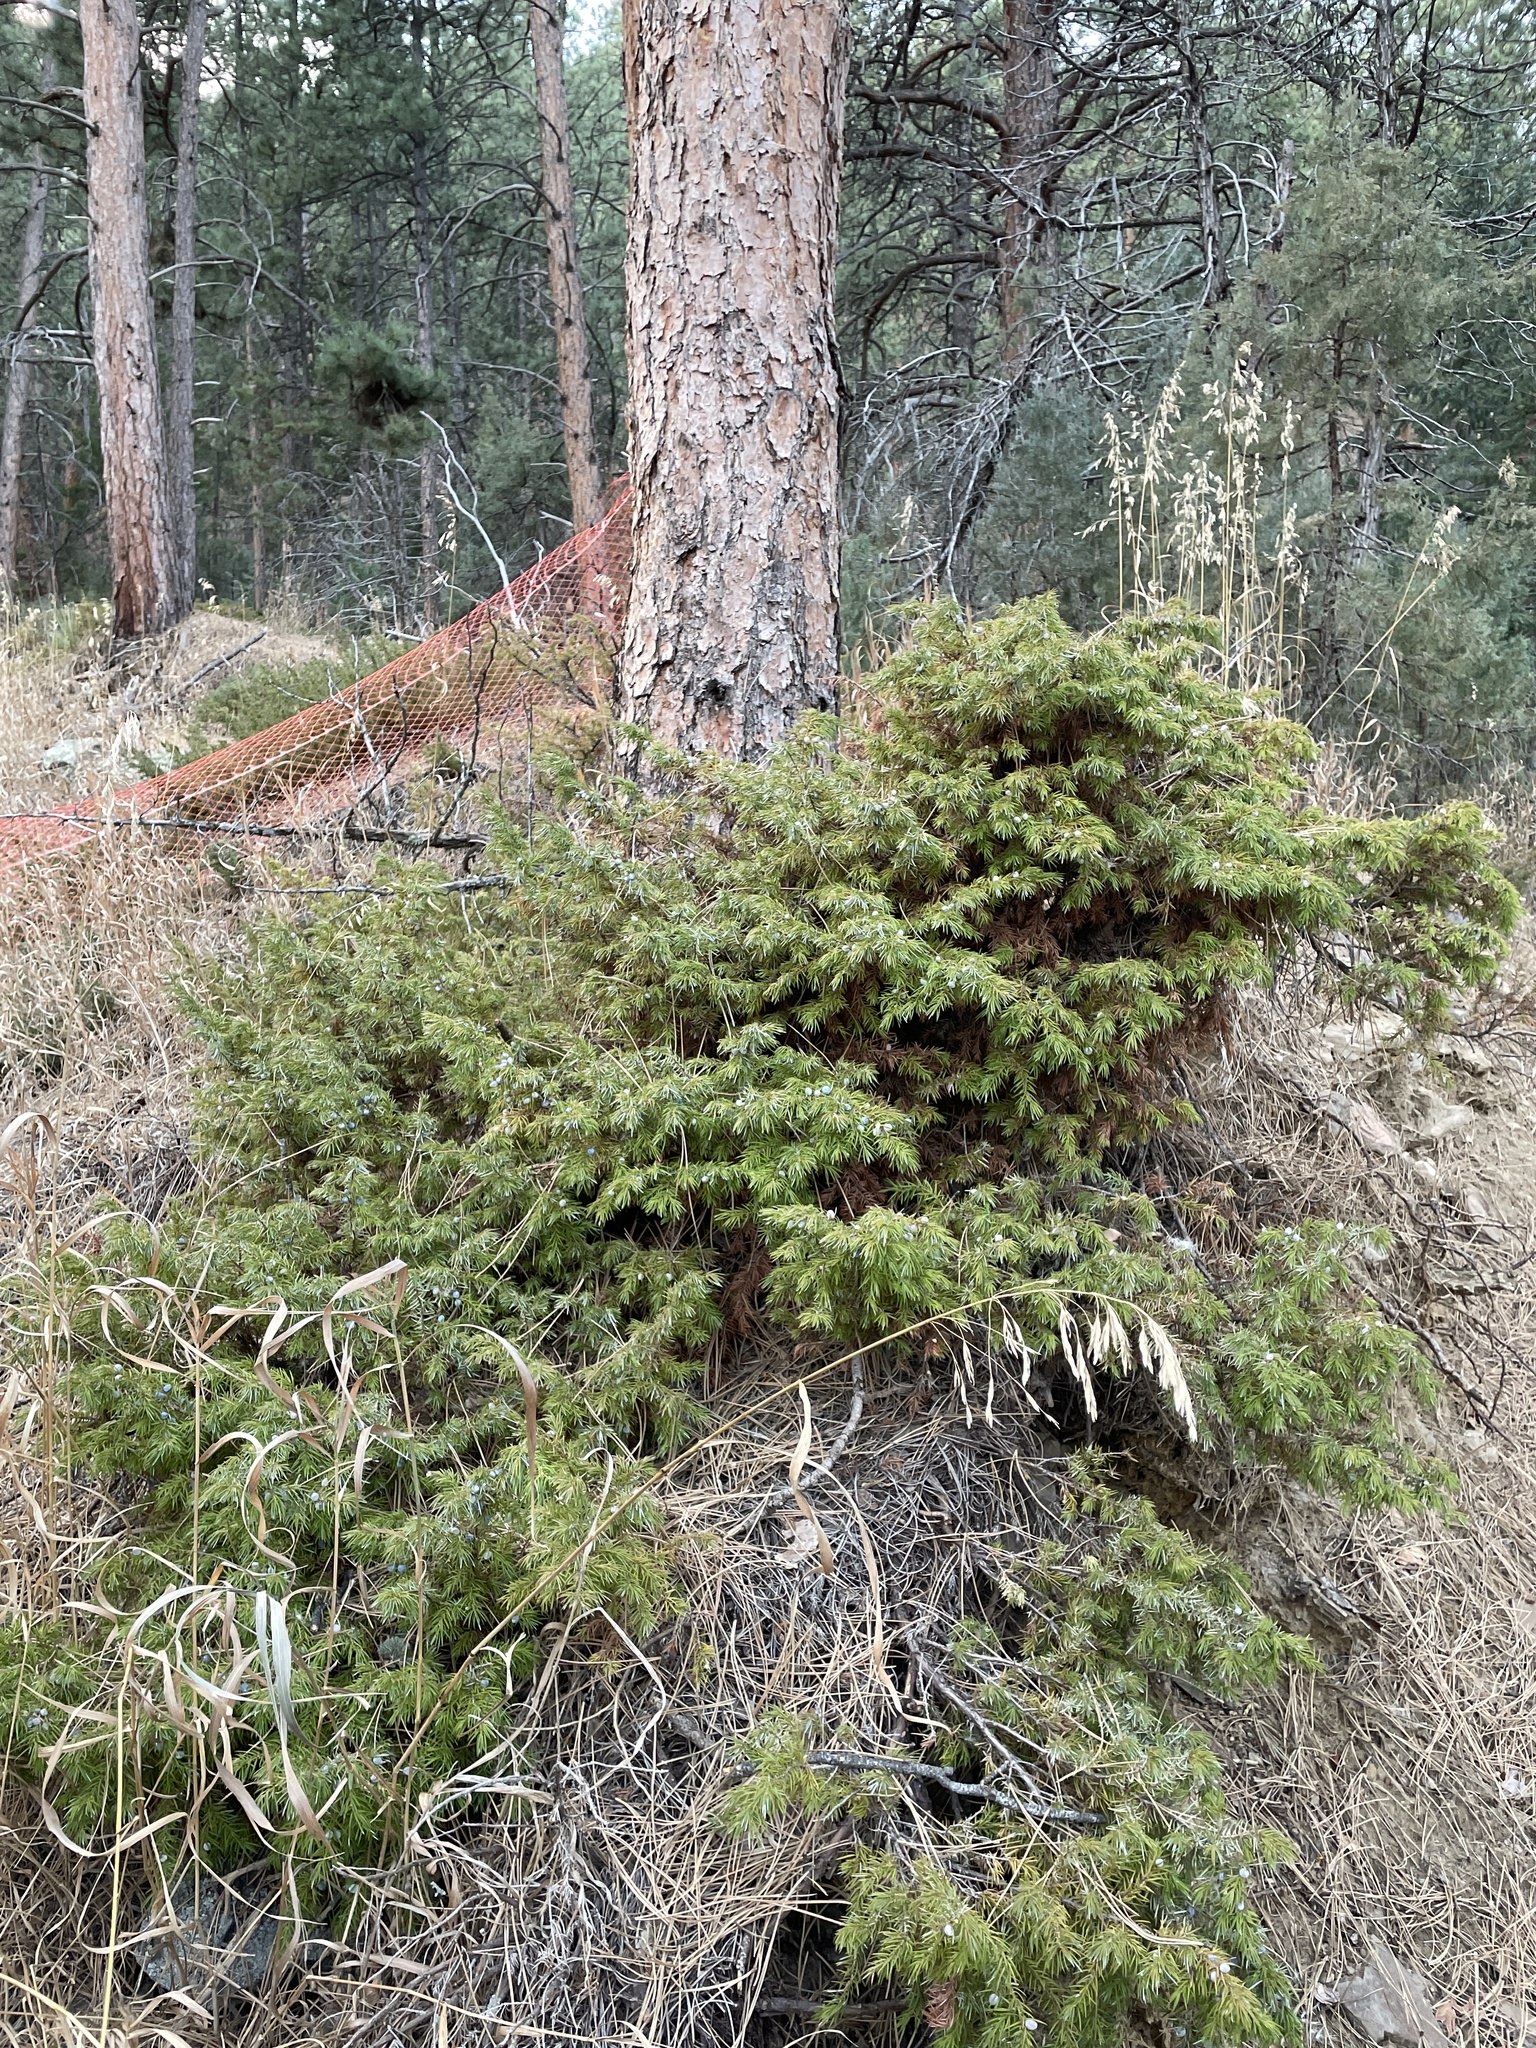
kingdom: Plantae
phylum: Tracheophyta
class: Pinopsida
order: Pinales
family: Cupressaceae
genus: Juniperus
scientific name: Juniperus communis
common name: Common juniper
